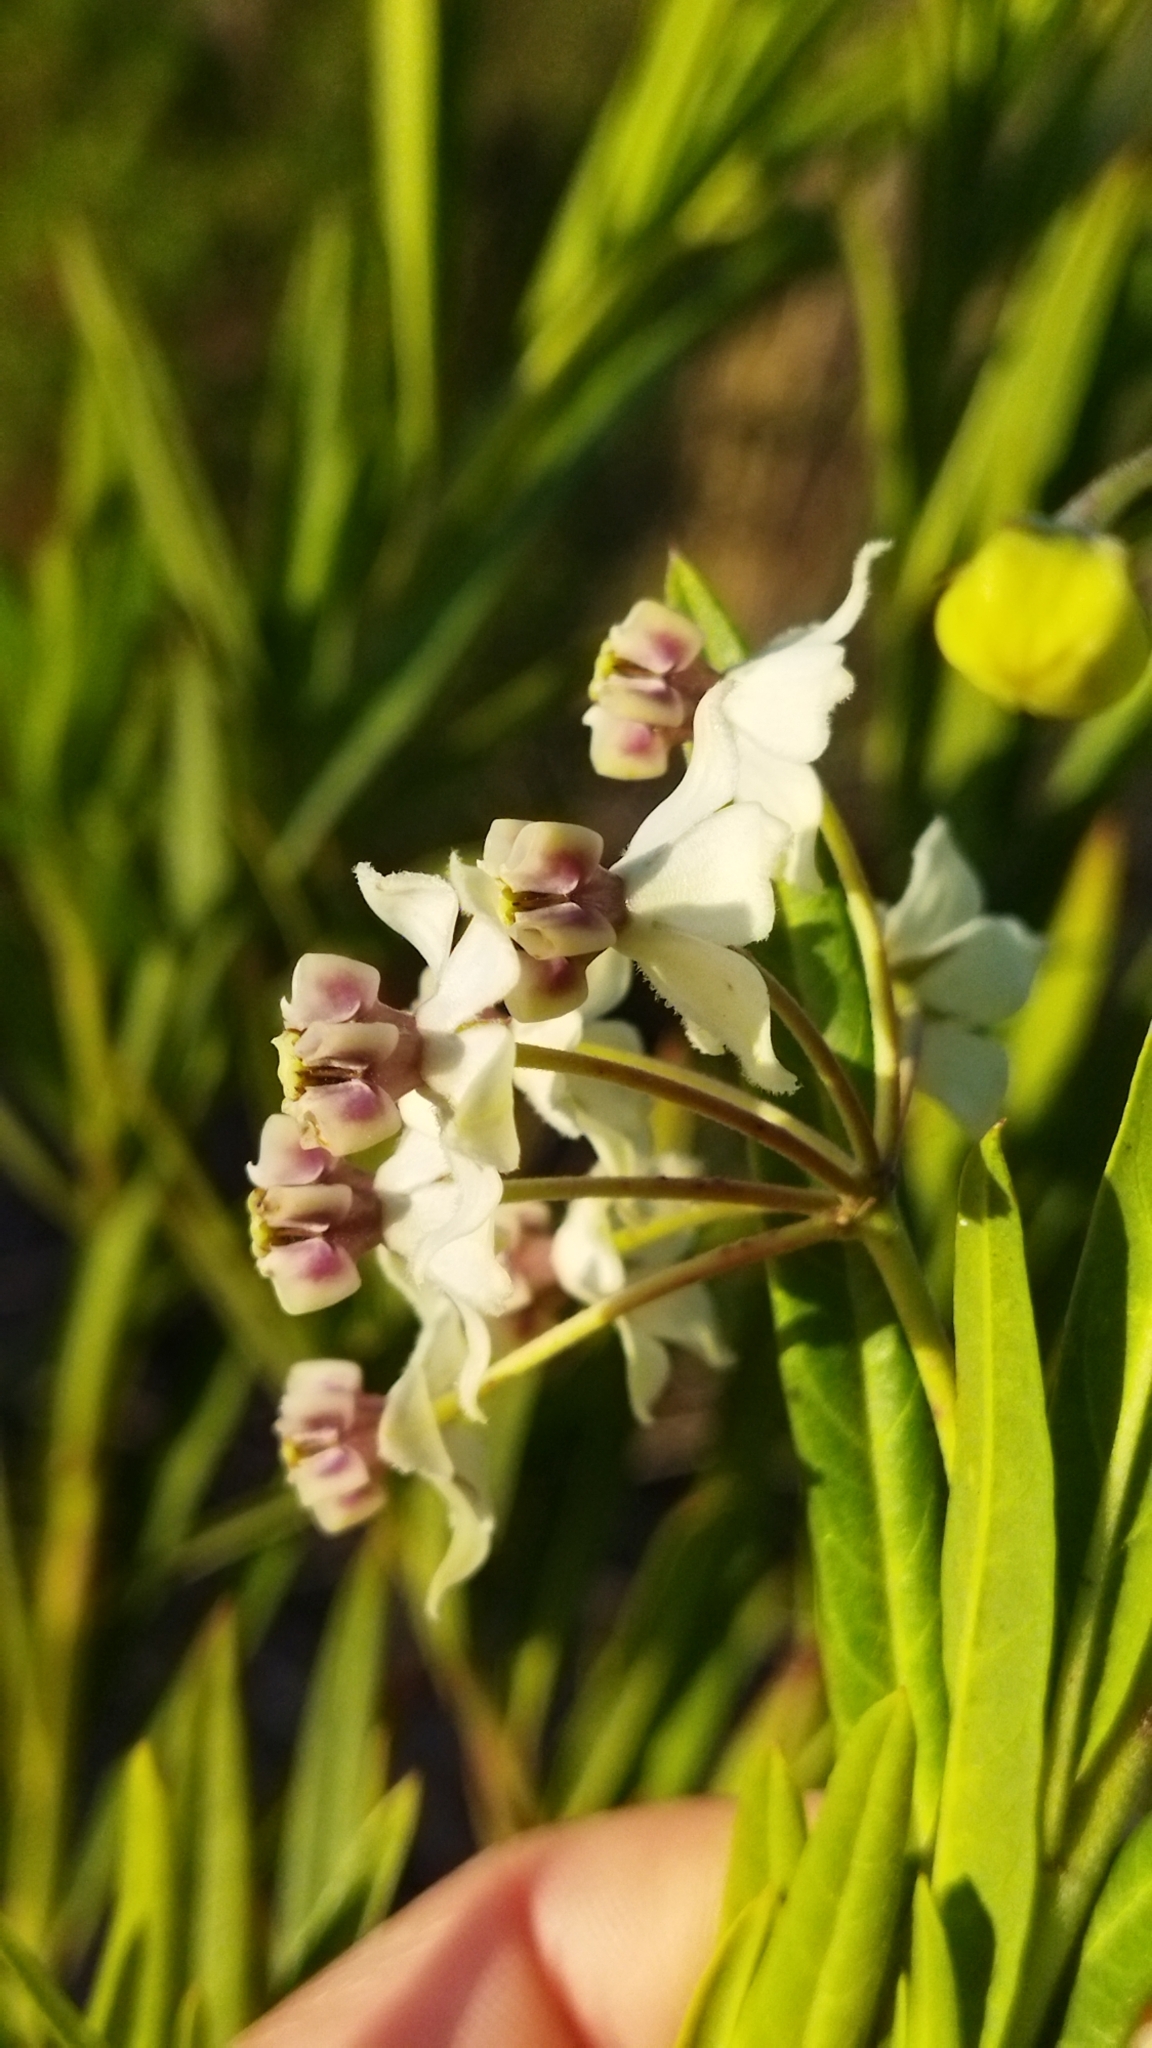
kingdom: Plantae
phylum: Tracheophyta
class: Magnoliopsida
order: Gentianales
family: Apocynaceae
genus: Gomphocarpus
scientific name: Gomphocarpus fruticosus
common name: Milkweed
